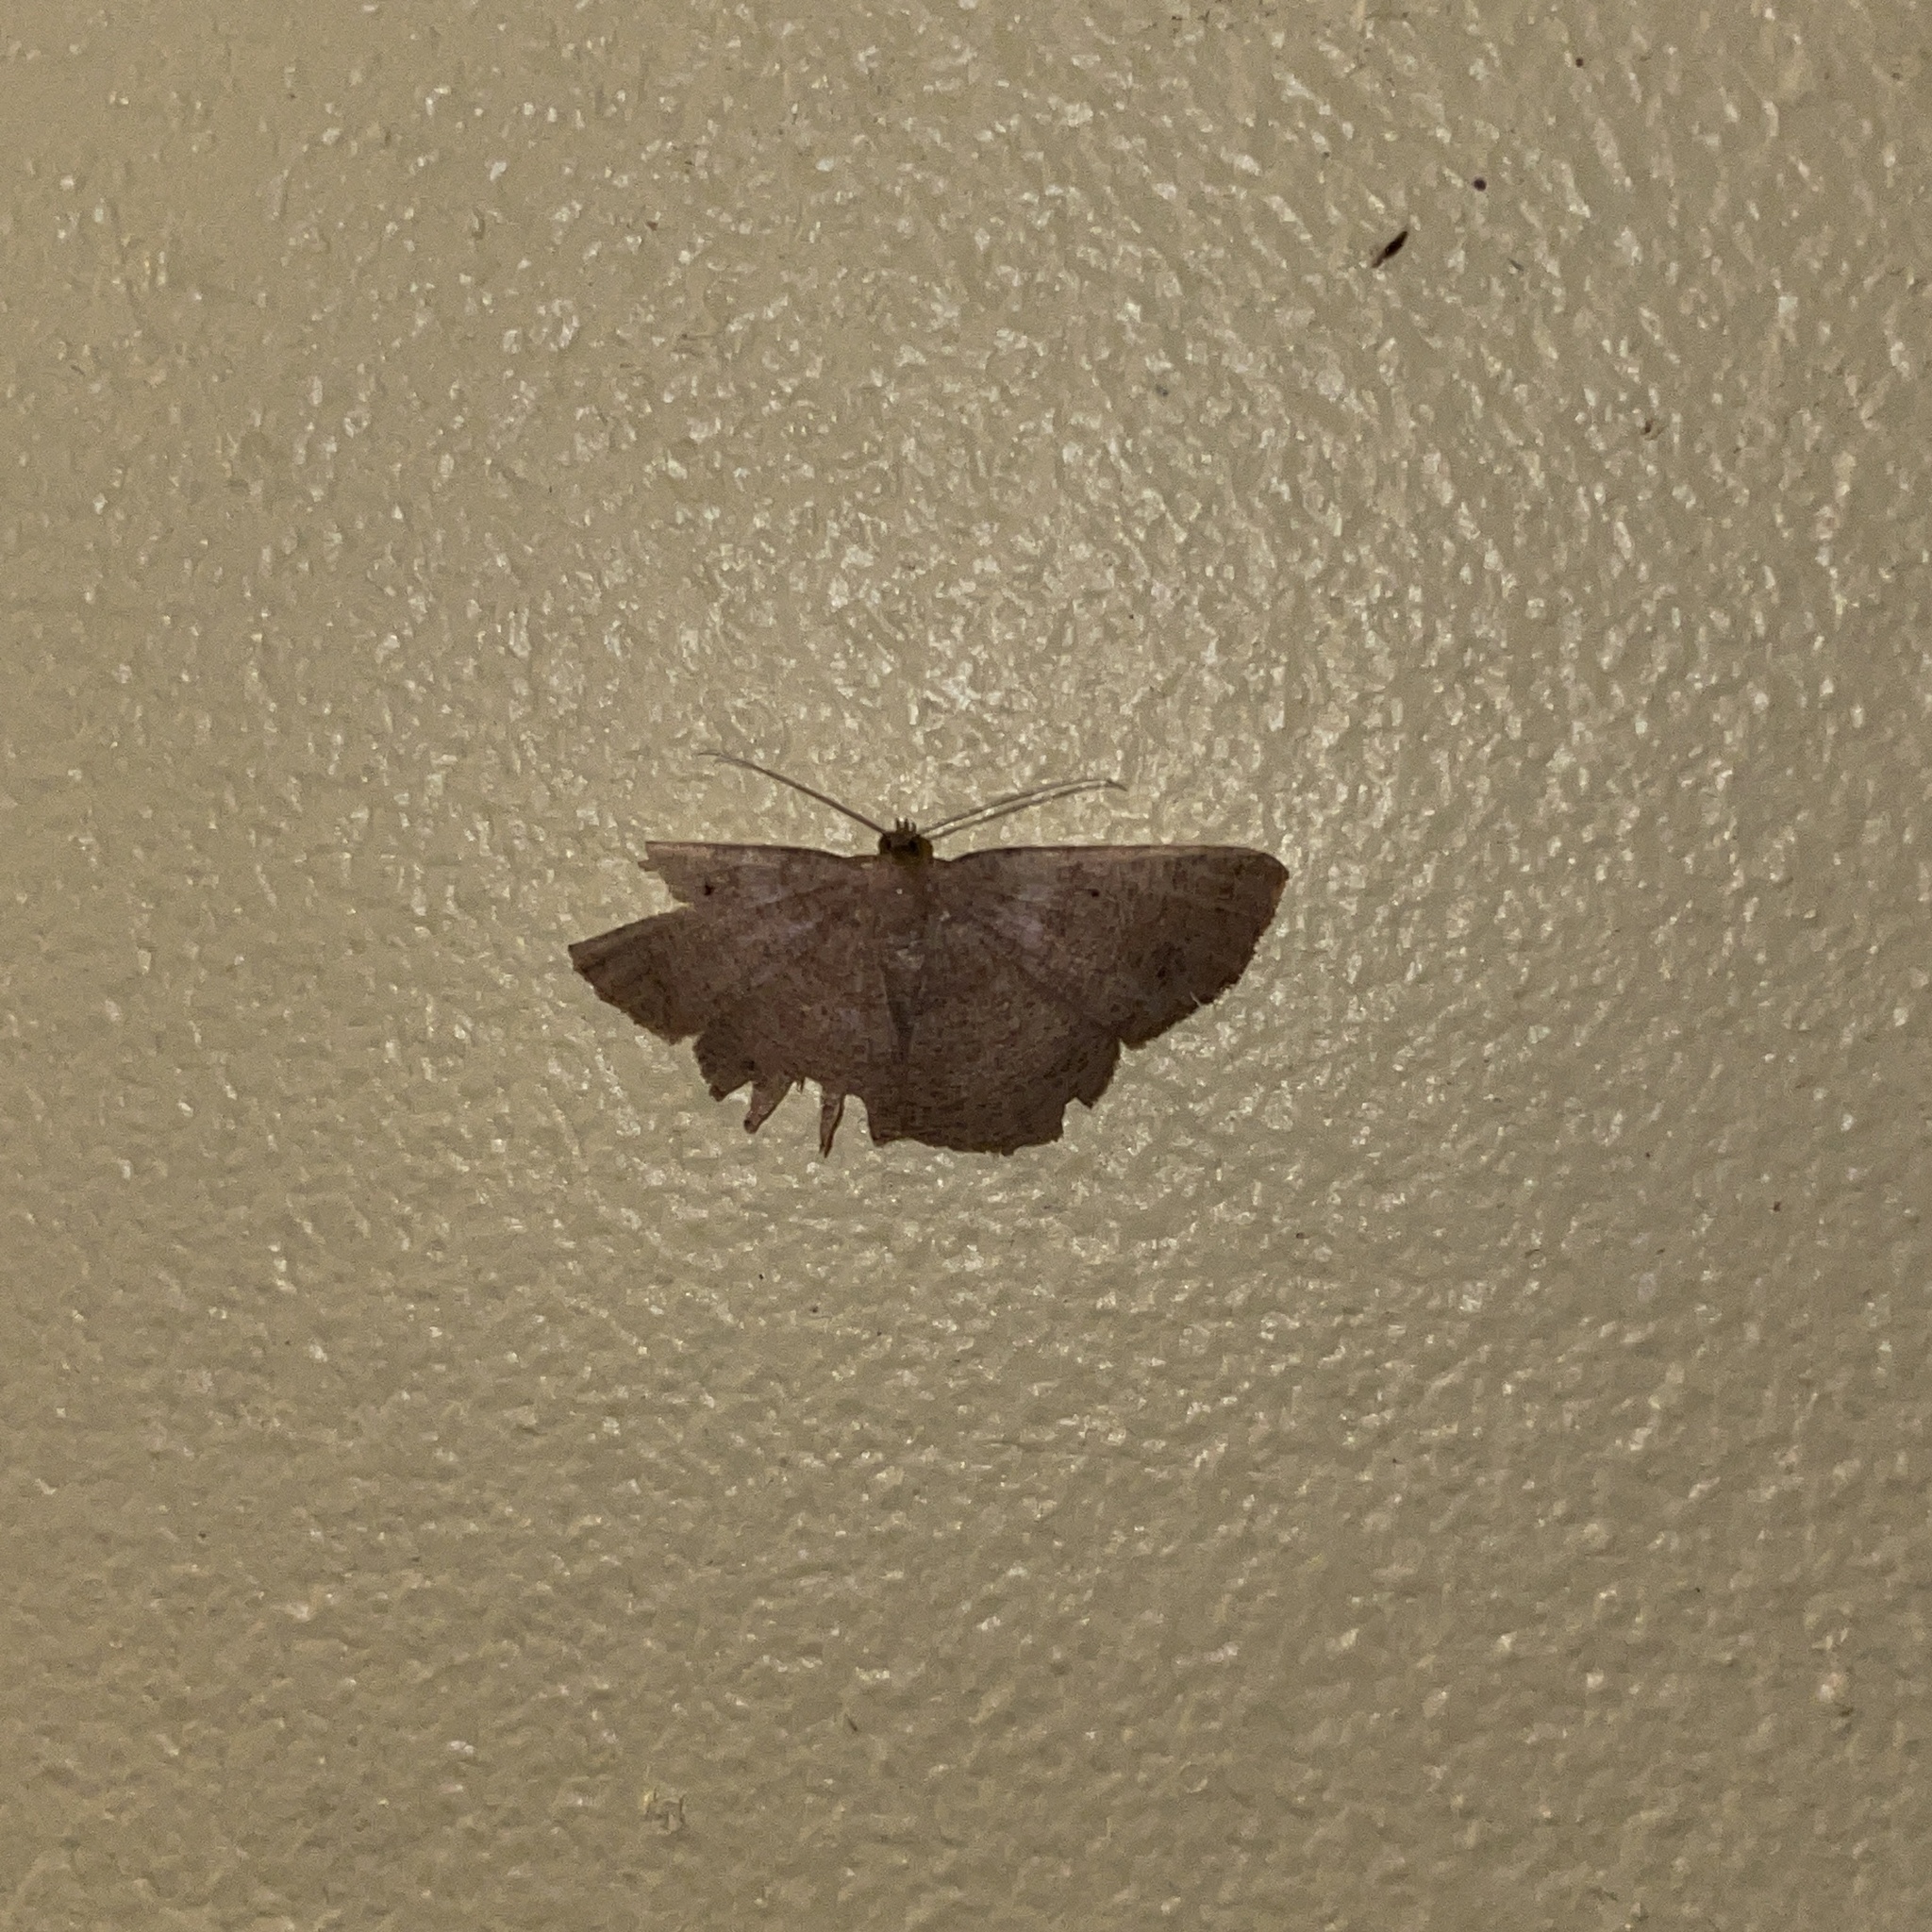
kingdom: Animalia
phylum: Arthropoda
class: Insecta
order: Lepidoptera
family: Geometridae
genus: Parilexia
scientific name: Parilexia nicetaria
